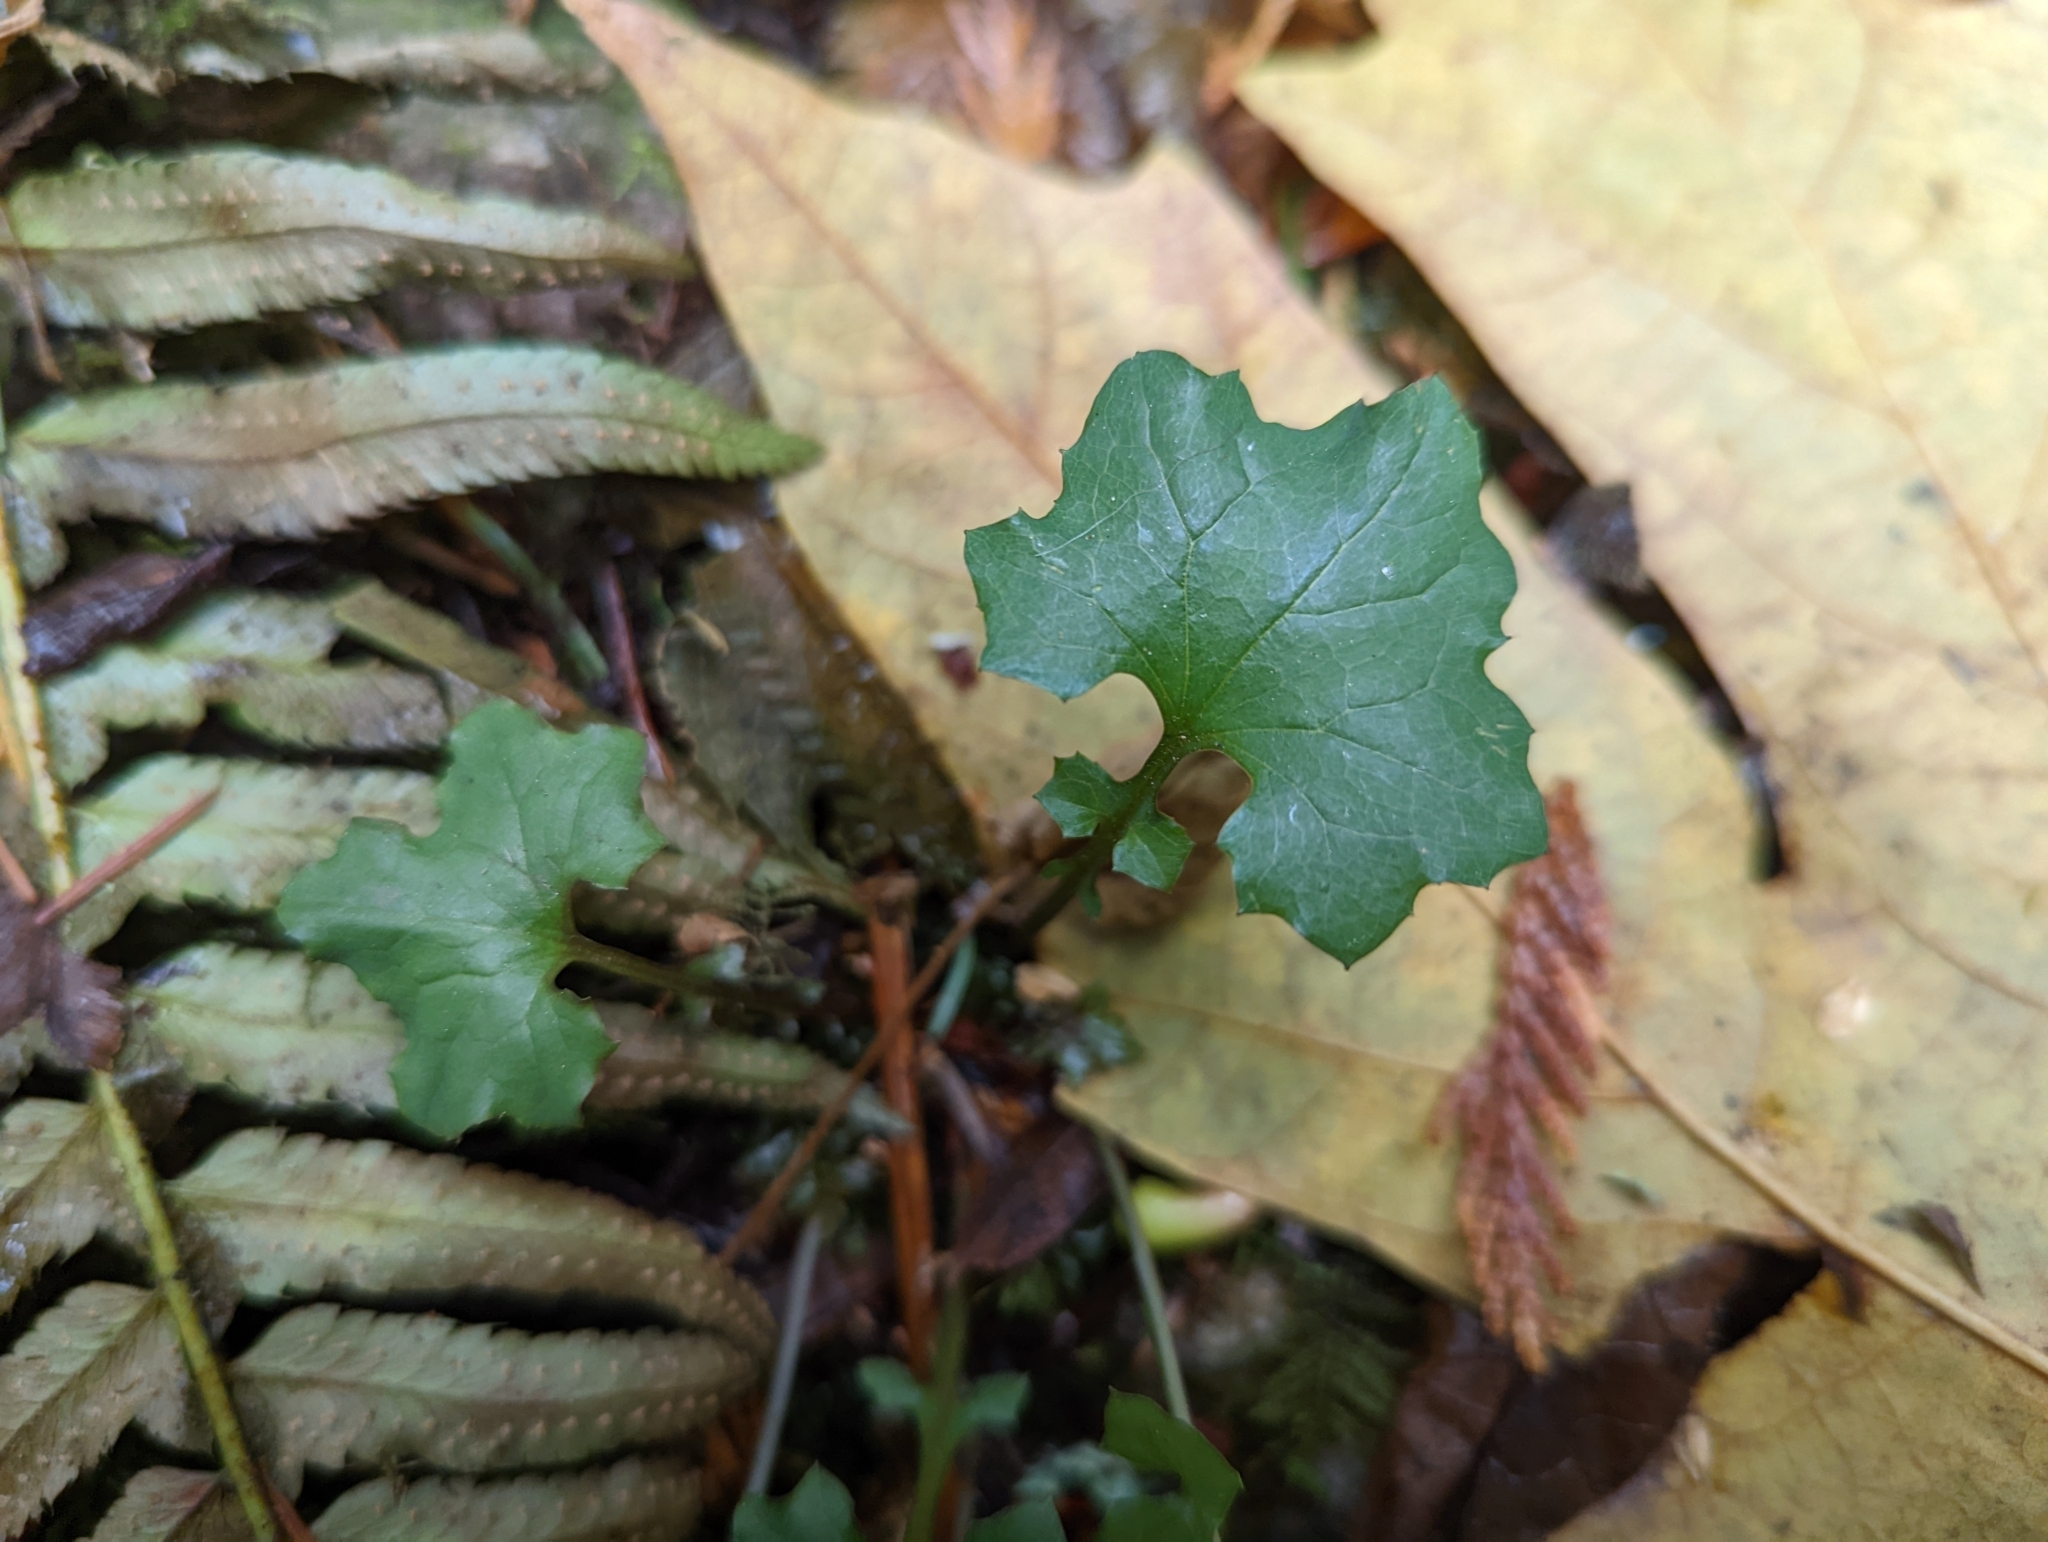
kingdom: Plantae
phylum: Tracheophyta
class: Magnoliopsida
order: Asterales
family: Asteraceae
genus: Mycelis
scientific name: Mycelis muralis
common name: Wall lettuce
